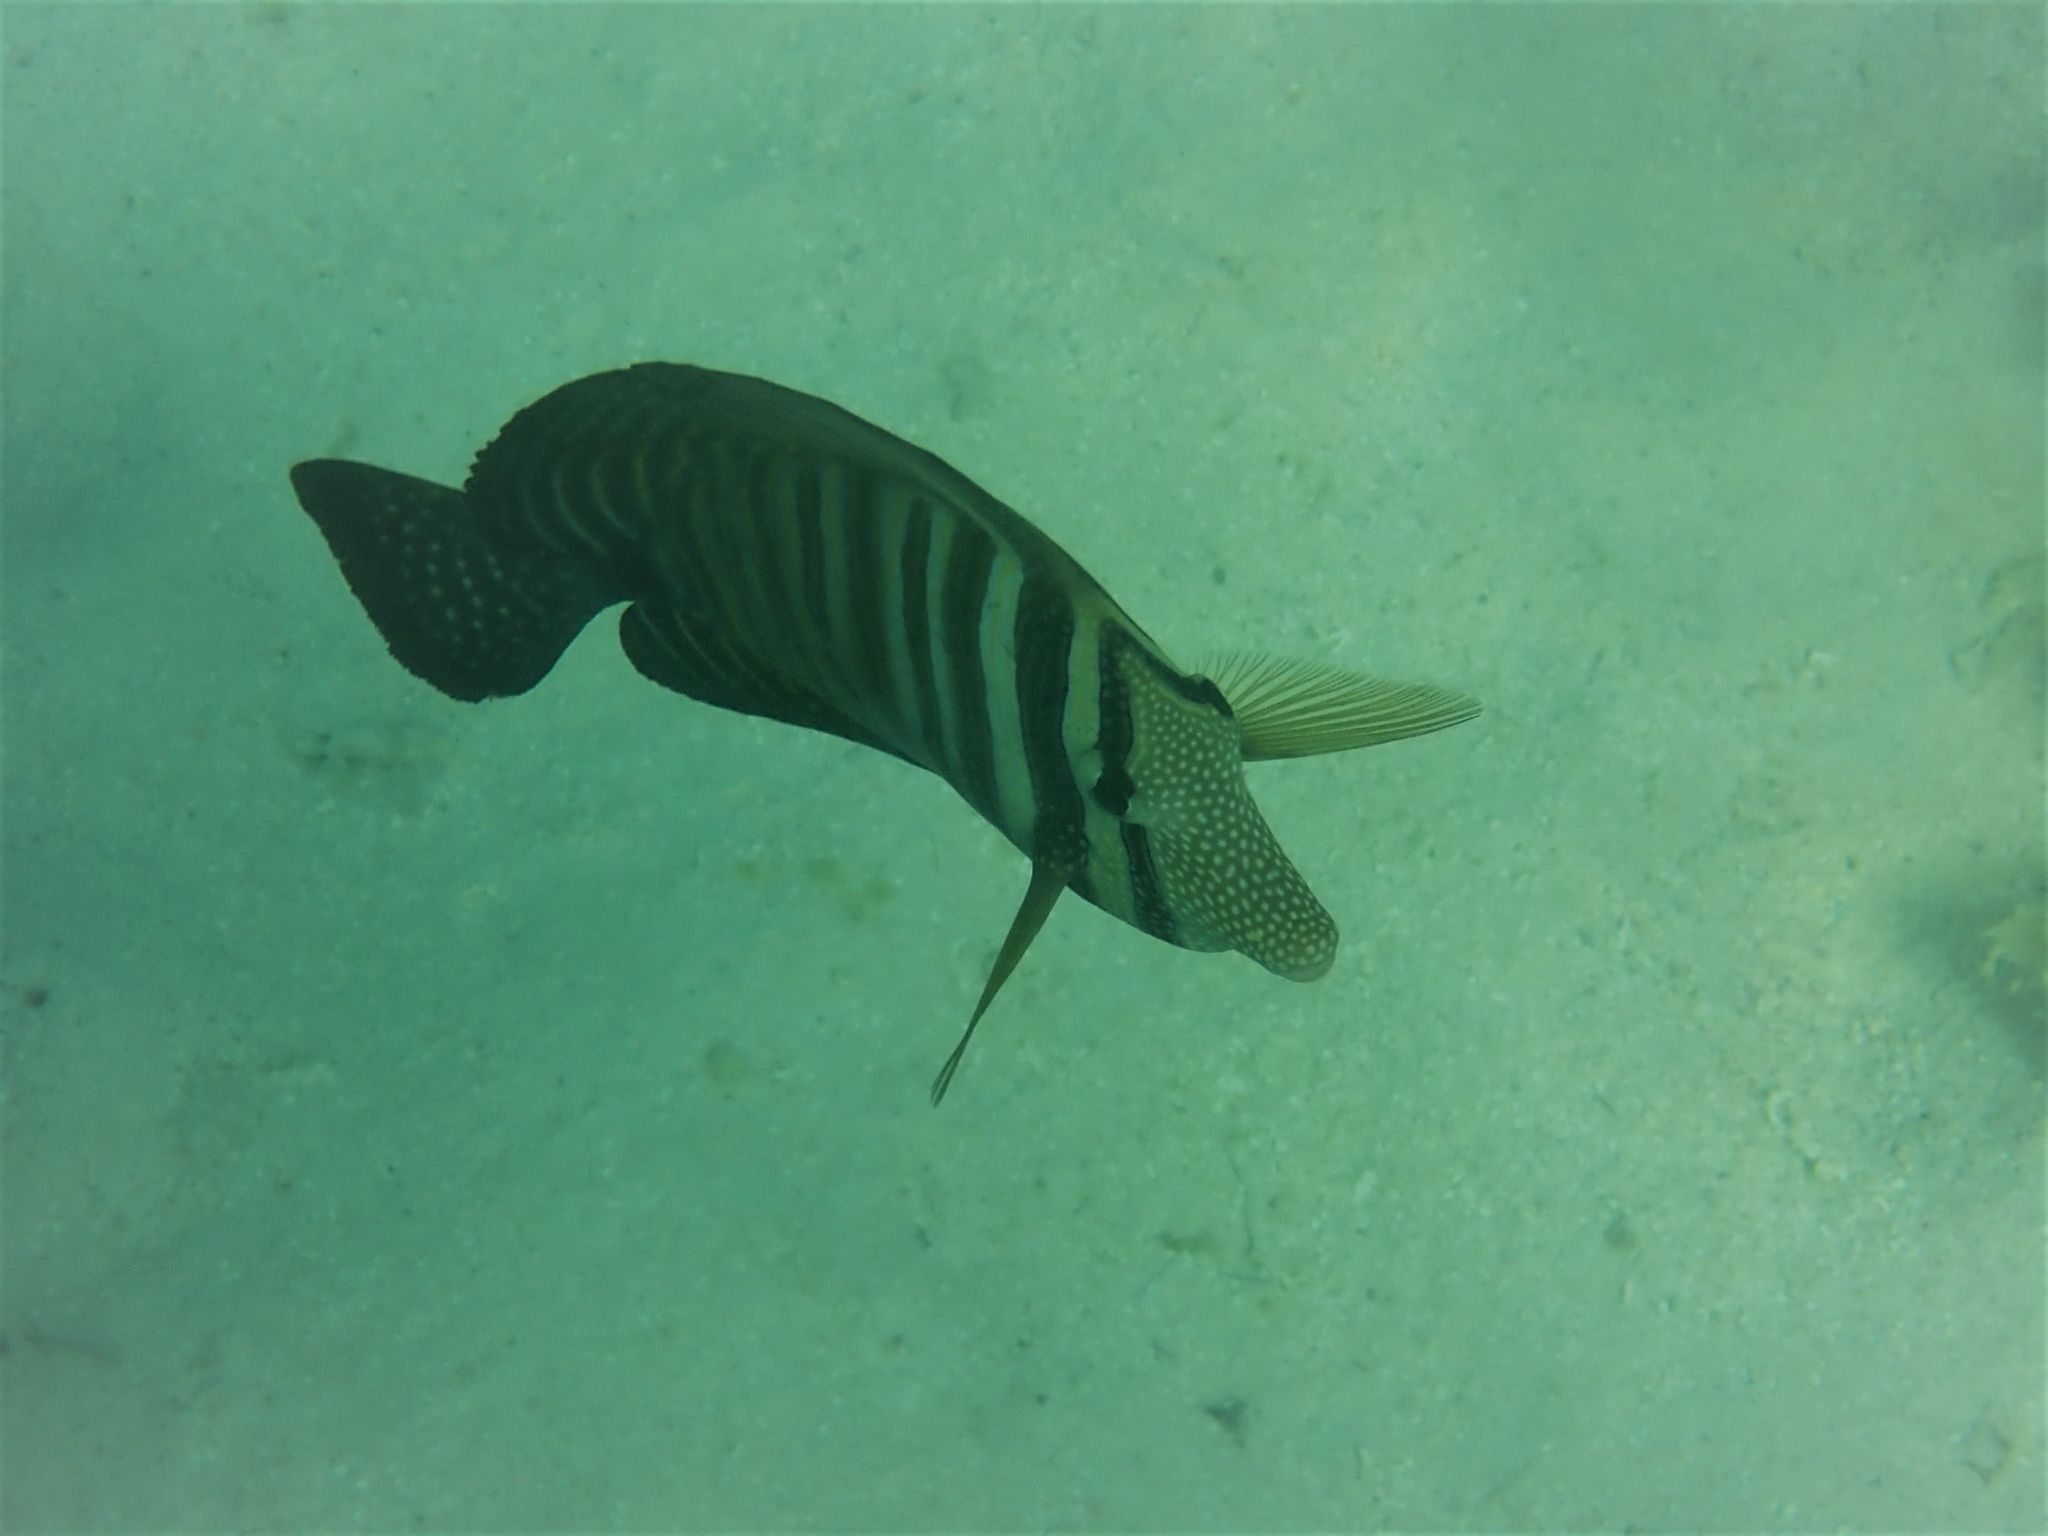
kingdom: Animalia
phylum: Chordata
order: Perciformes
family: Acanthuridae
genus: Zebrasoma
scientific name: Zebrasoma desjardinii
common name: Desjardin's sailfin tang
